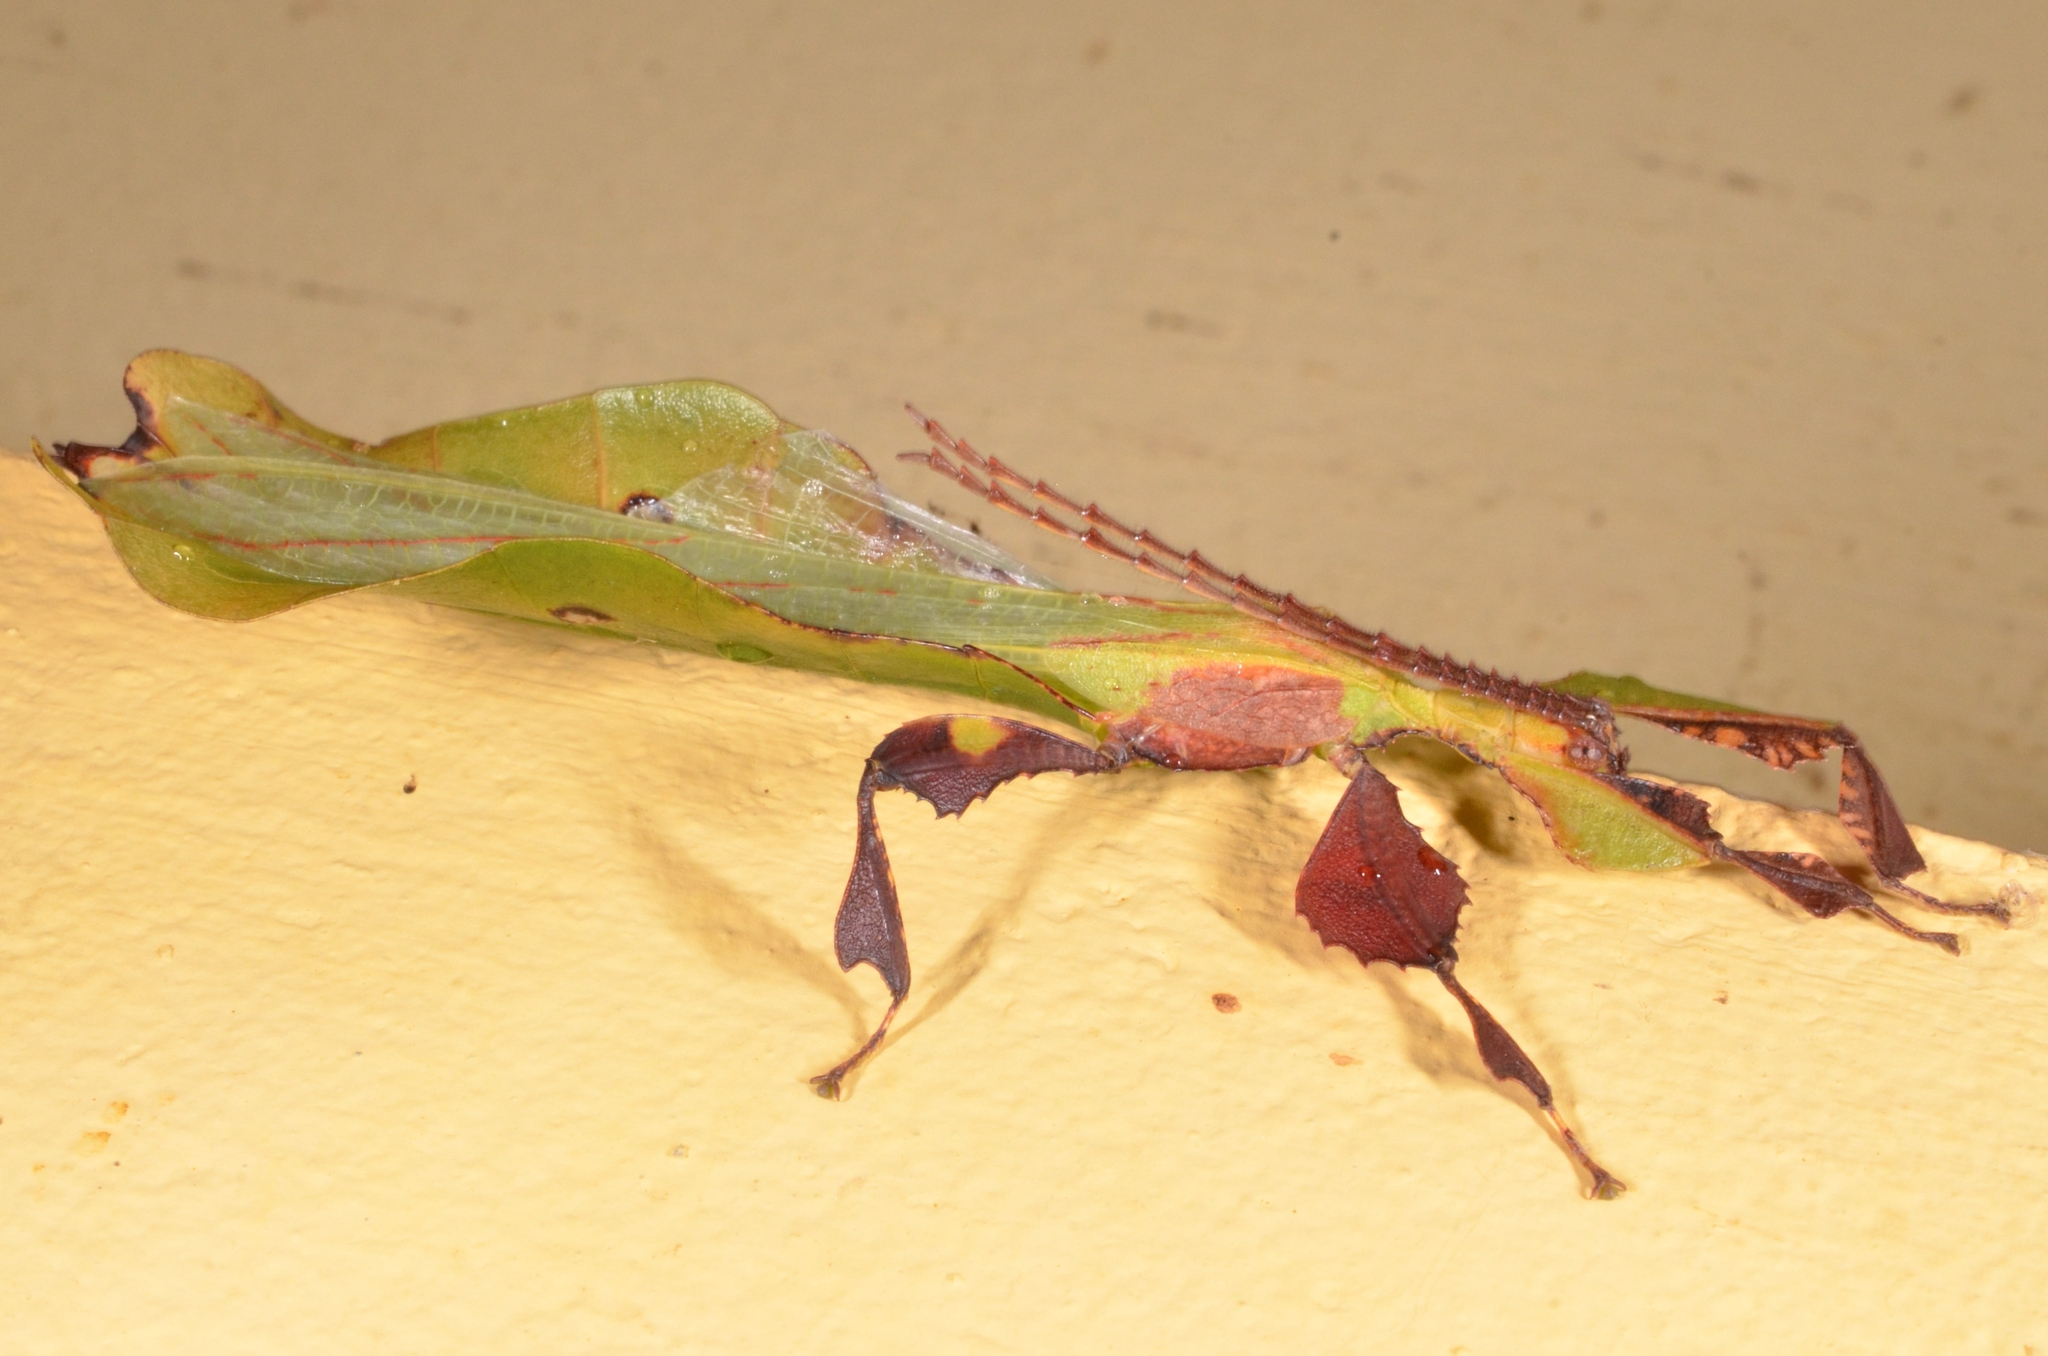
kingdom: Animalia
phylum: Arthropoda
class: Insecta
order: Phasmida
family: Phylliidae
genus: Pulchriphyllium
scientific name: Pulchriphyllium heracles
